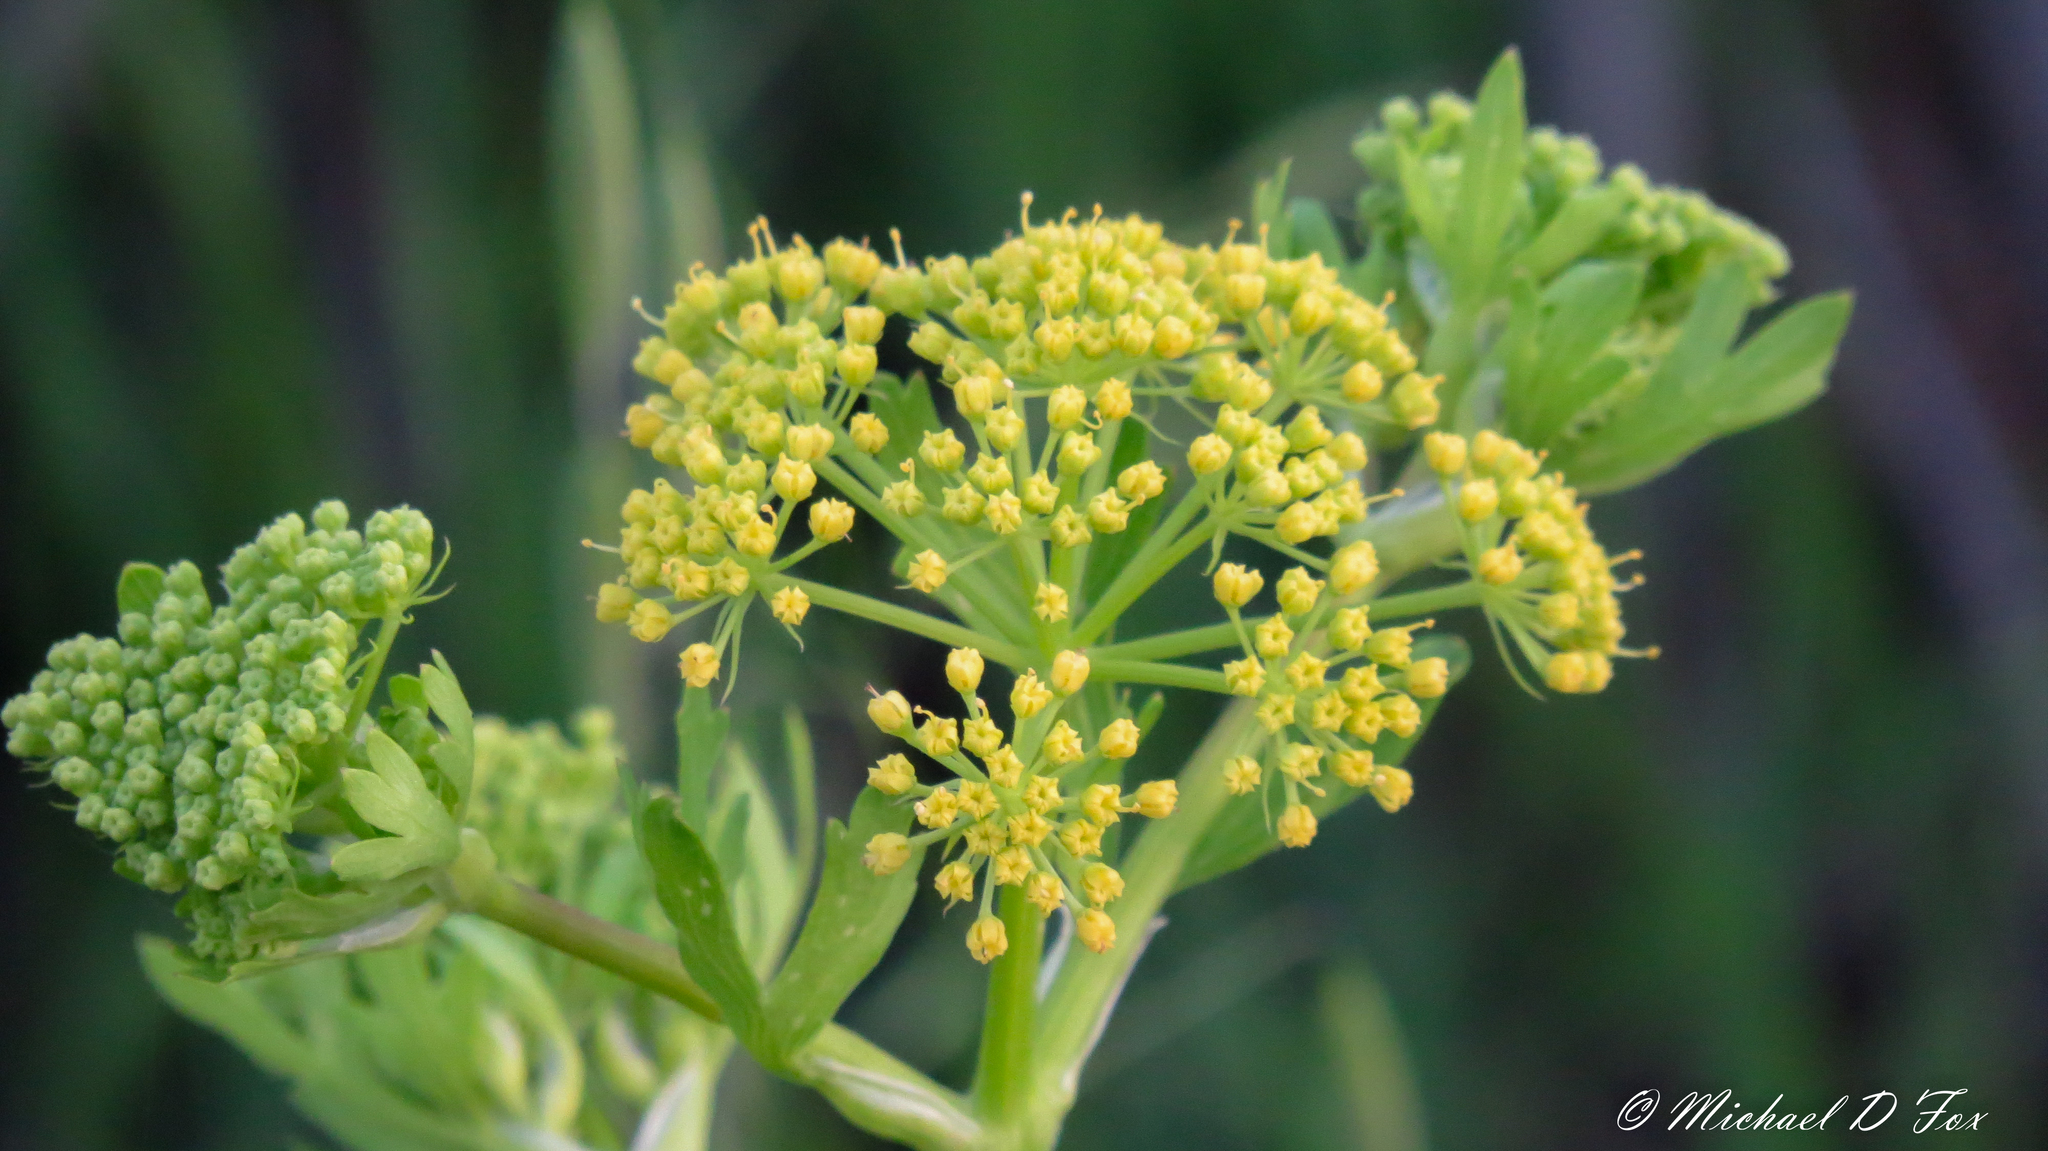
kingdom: Plantae
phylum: Tracheophyta
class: Magnoliopsida
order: Apiales
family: Apiaceae
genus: Polytaenia
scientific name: Polytaenia texana
